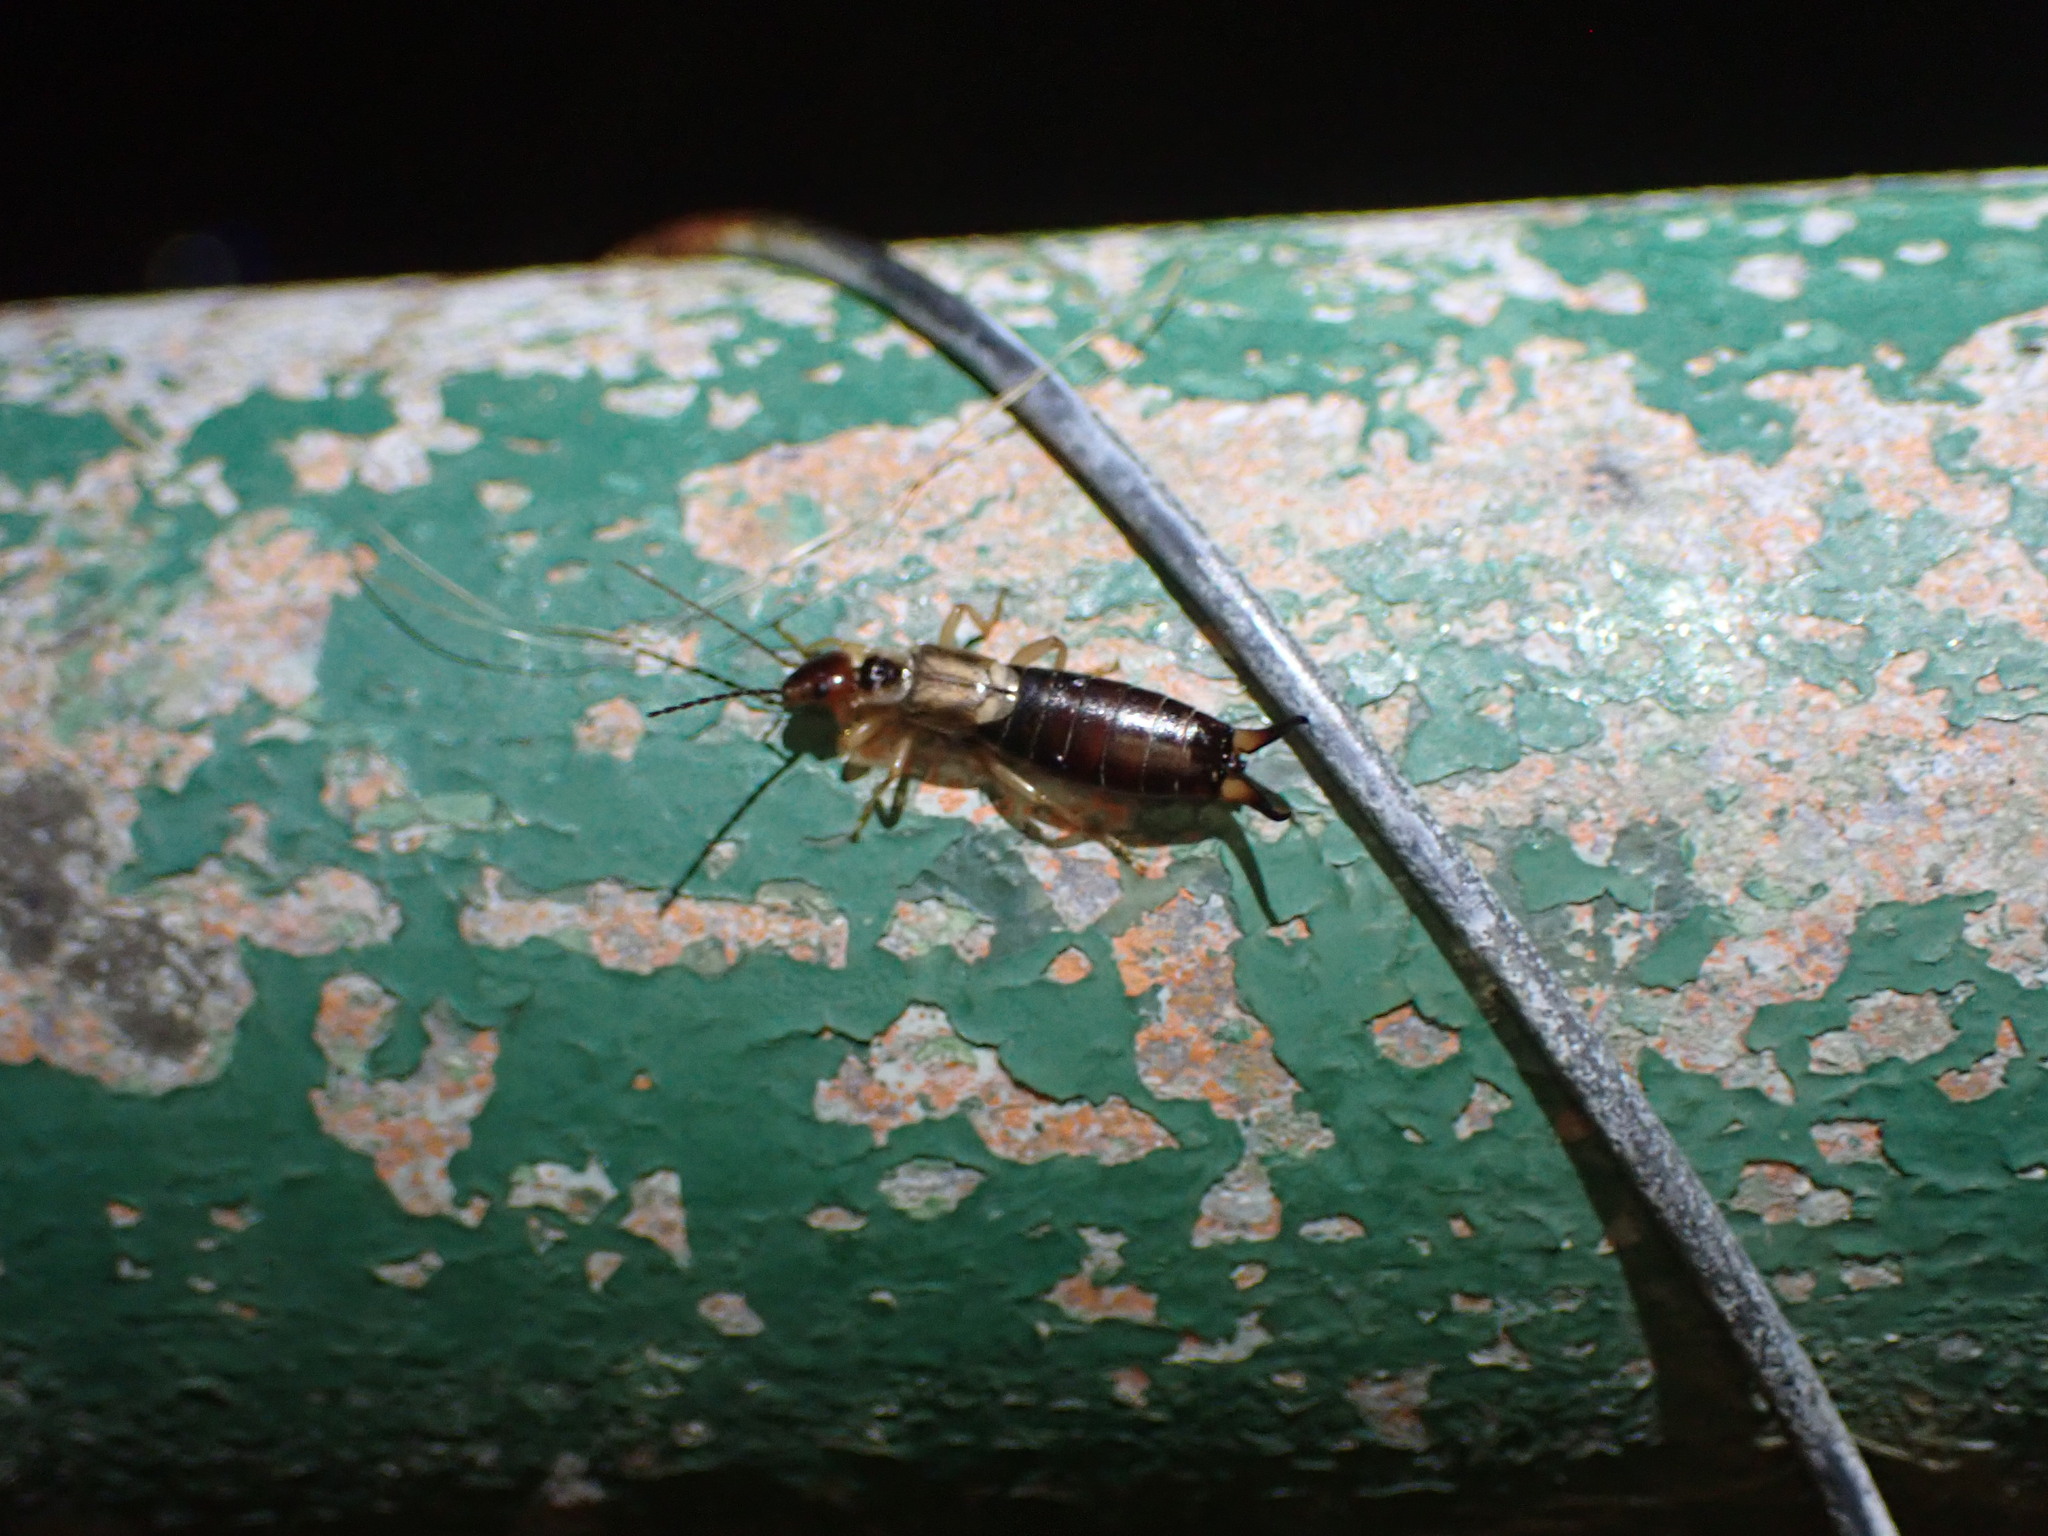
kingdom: Animalia
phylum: Arthropoda
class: Insecta
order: Dermaptera
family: Forficulidae
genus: Forficula
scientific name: Forficula
